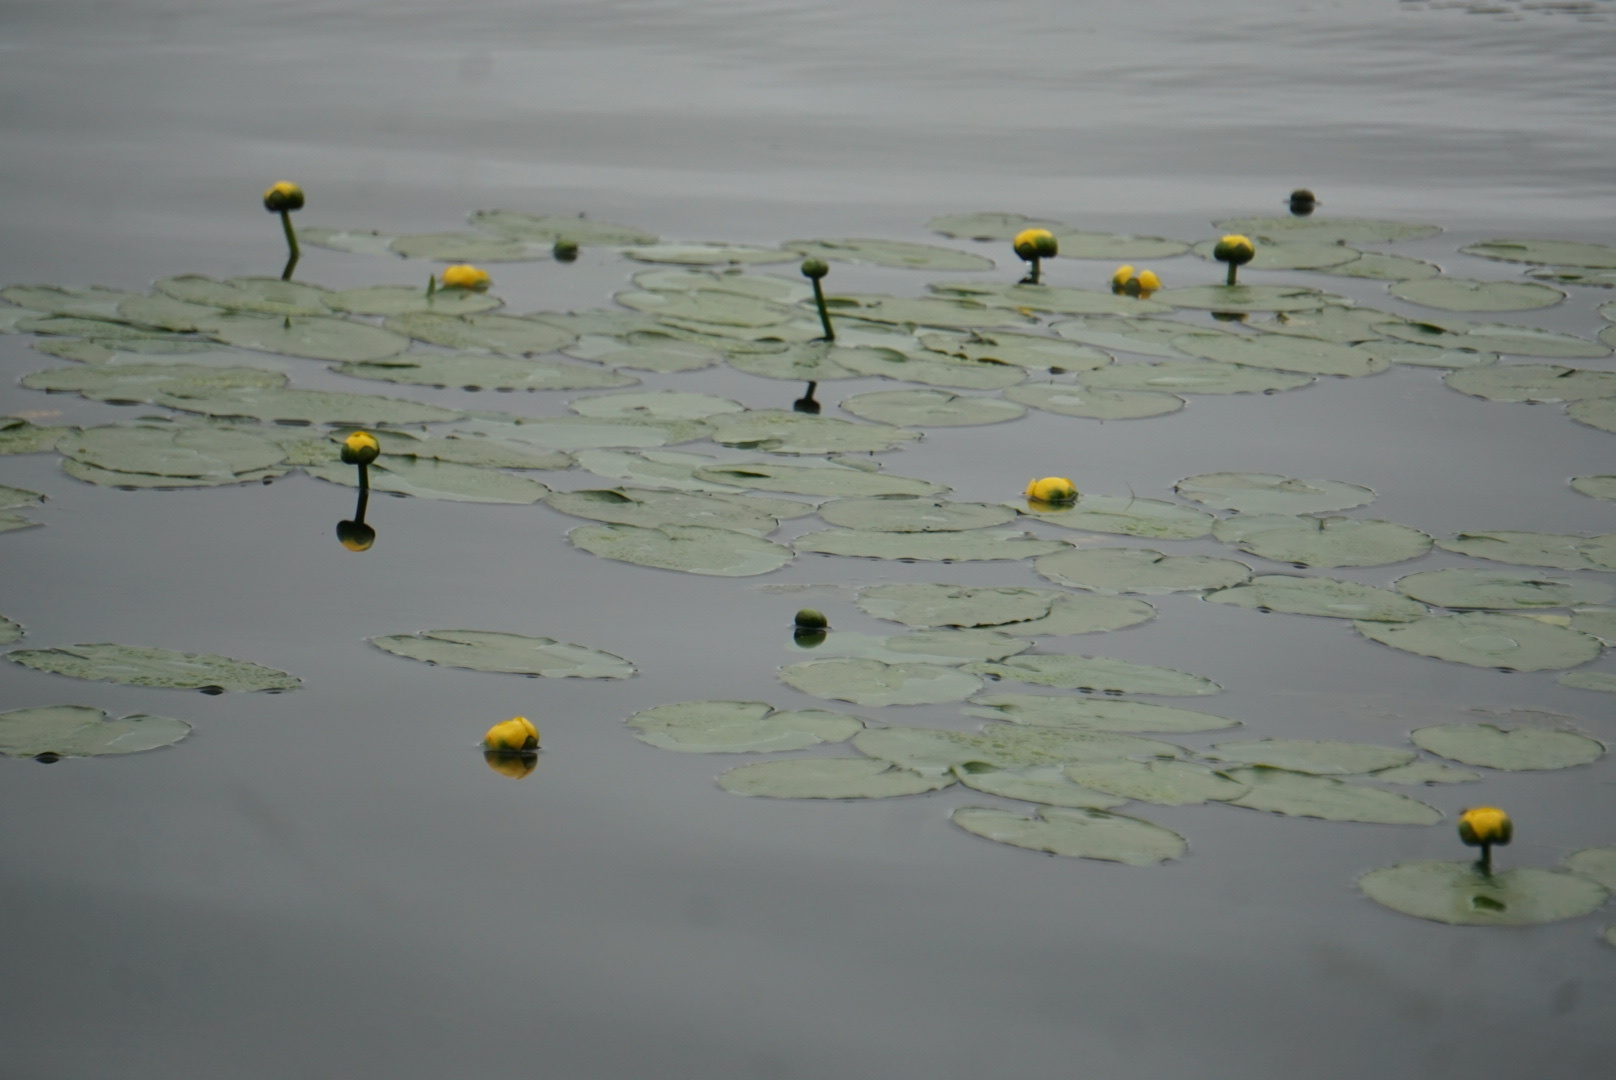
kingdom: Plantae
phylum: Tracheophyta
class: Magnoliopsida
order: Nymphaeales
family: Nymphaeaceae
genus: Nuphar
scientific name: Nuphar variegata
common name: Beaver-root
